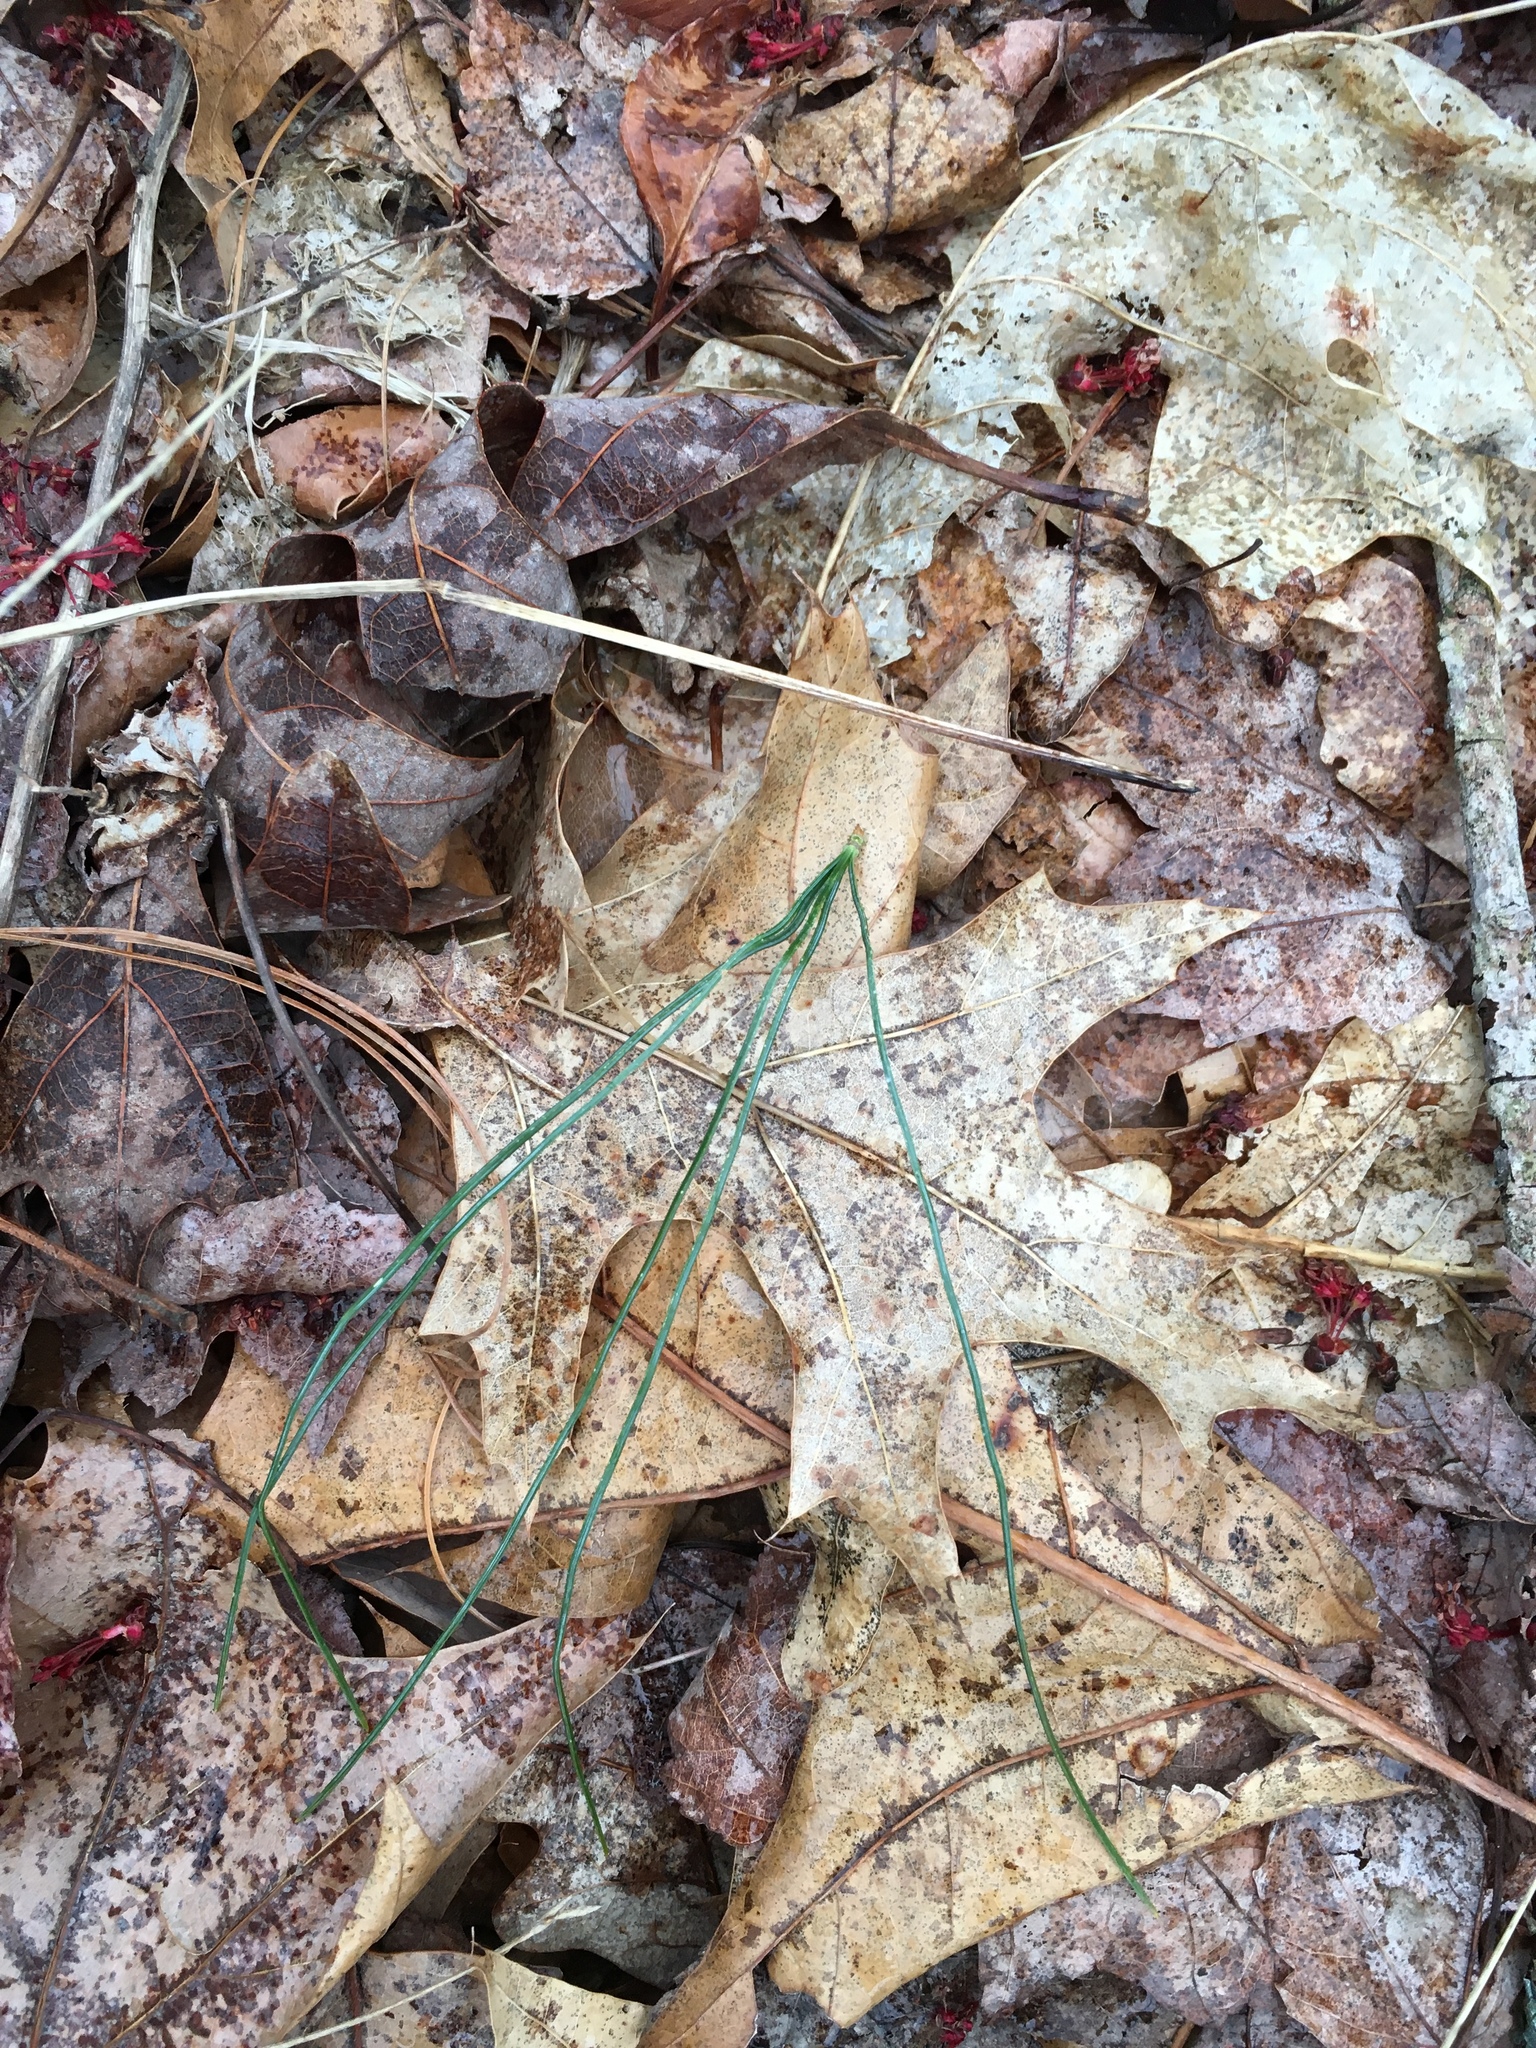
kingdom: Plantae
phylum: Tracheophyta
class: Pinopsida
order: Pinales
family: Pinaceae
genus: Pinus
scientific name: Pinus strobus
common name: Weymouth pine
